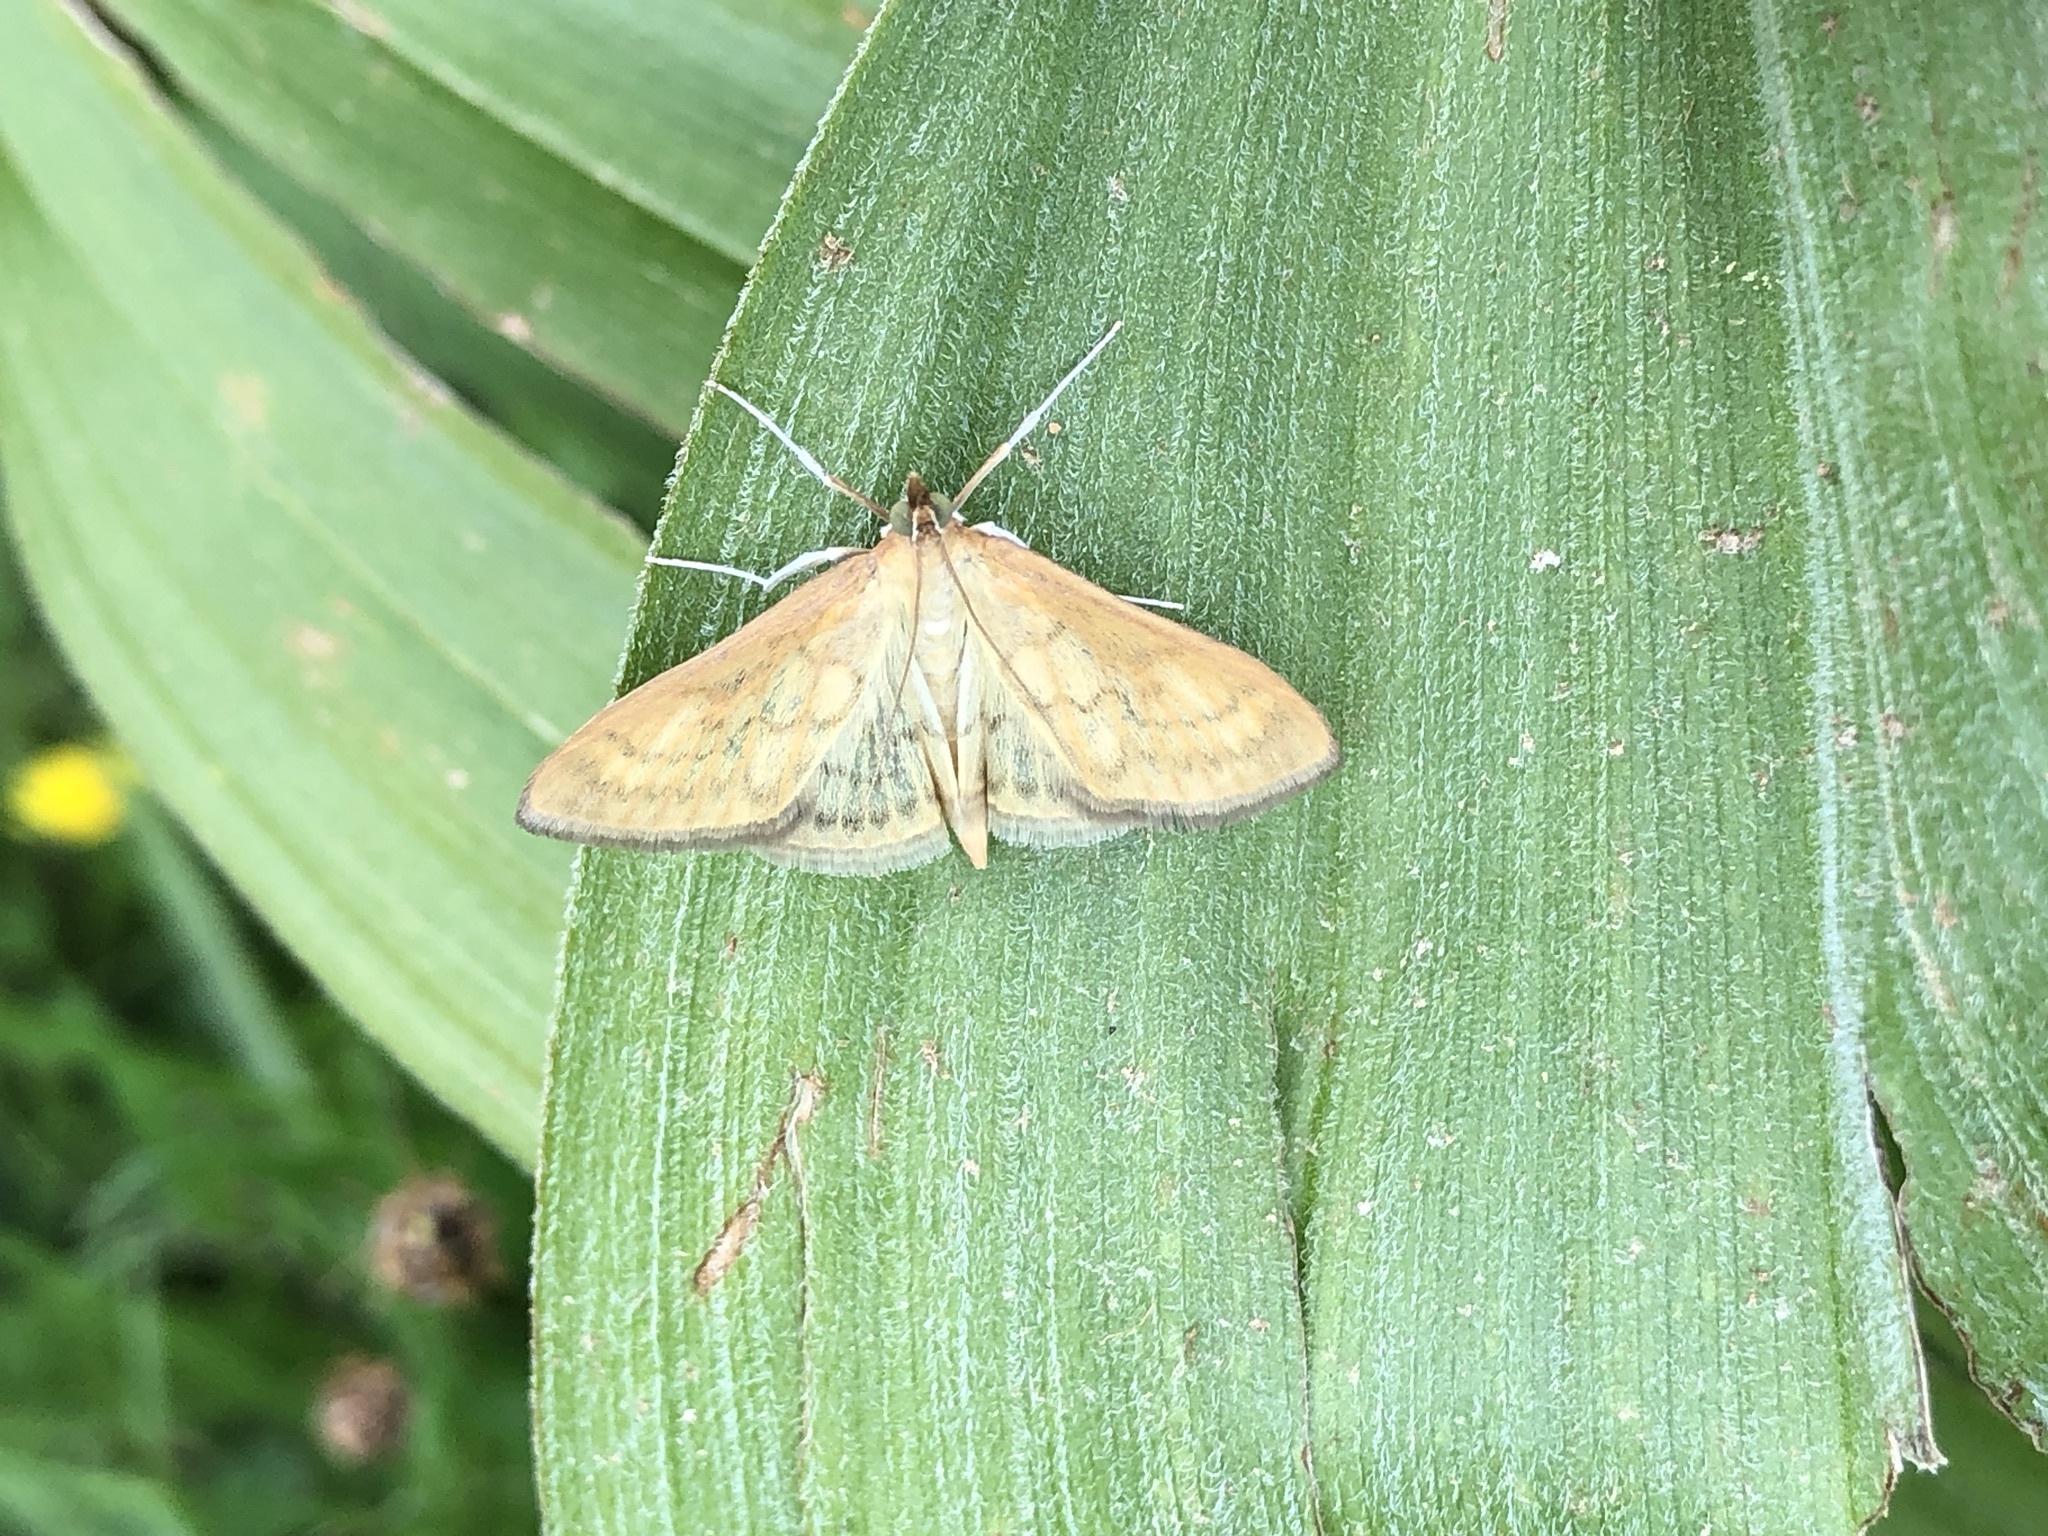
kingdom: Animalia
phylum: Arthropoda
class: Insecta
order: Lepidoptera
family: Crambidae
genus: Paratalanta
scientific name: Paratalanta hyalinalis
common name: Translucent pearl
